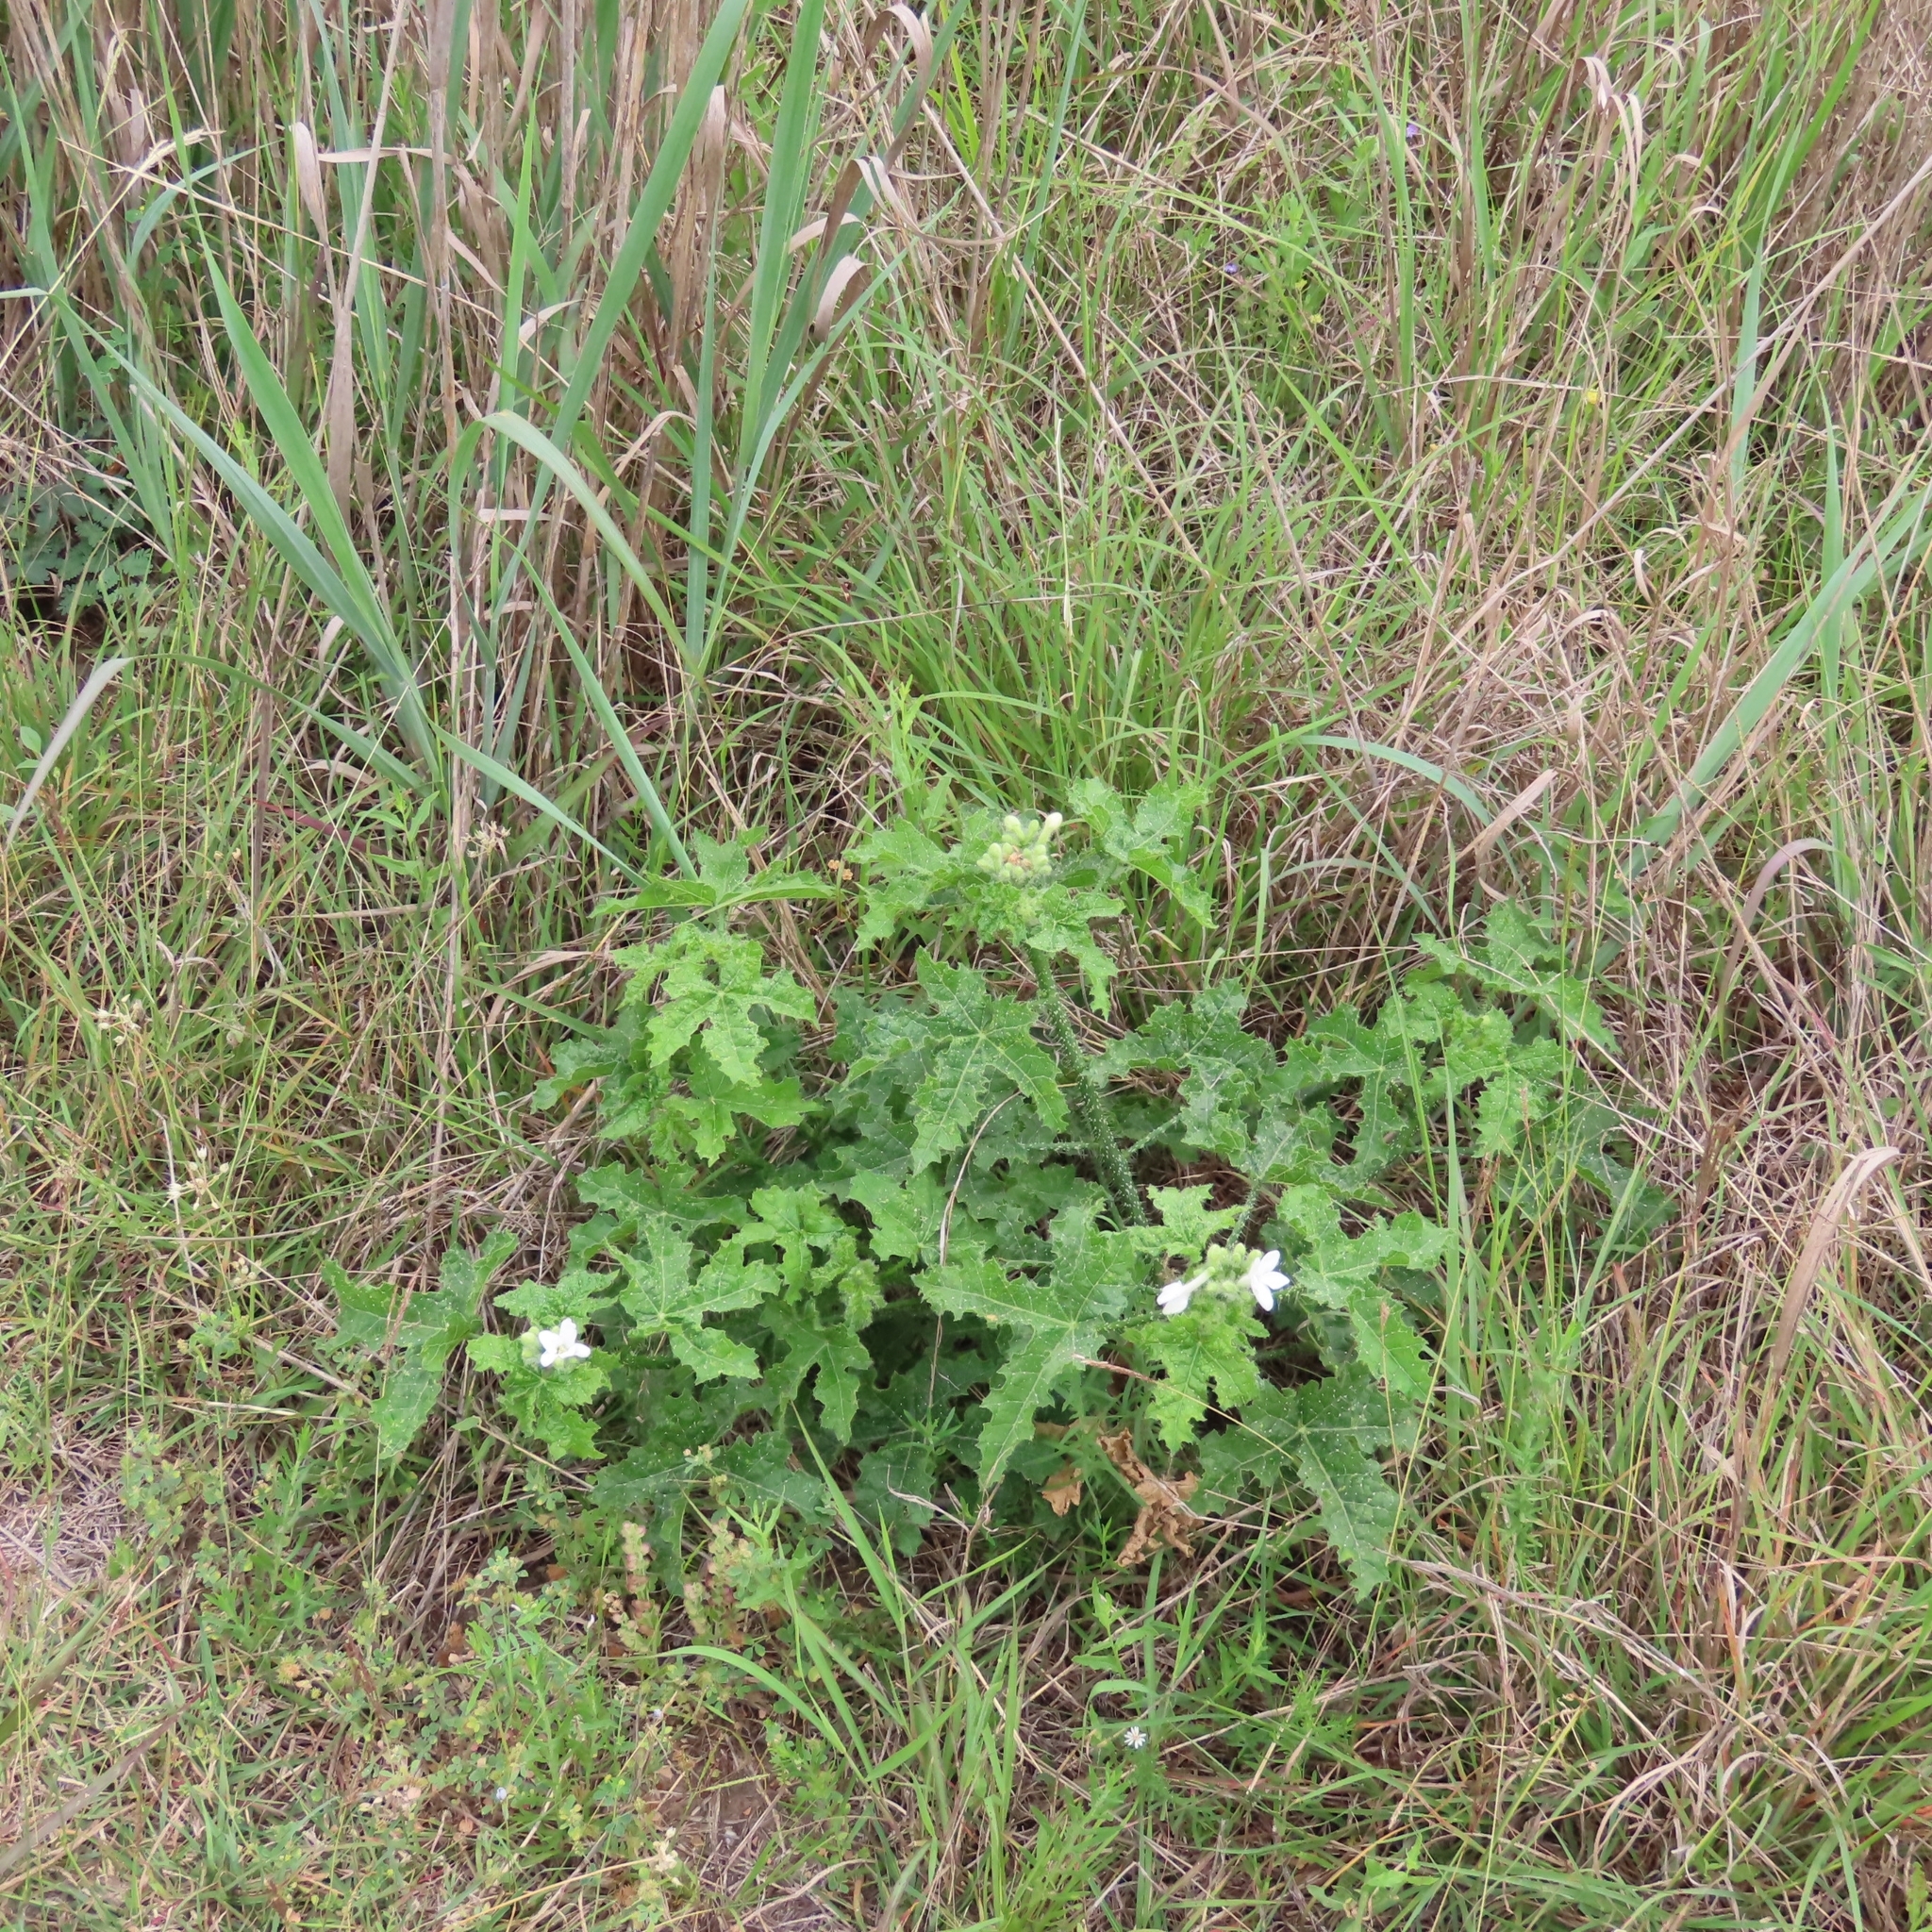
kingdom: Plantae
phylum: Tracheophyta
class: Magnoliopsida
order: Malpighiales
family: Euphorbiaceae
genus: Cnidoscolus
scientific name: Cnidoscolus texanus
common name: Texas bull-nettle
